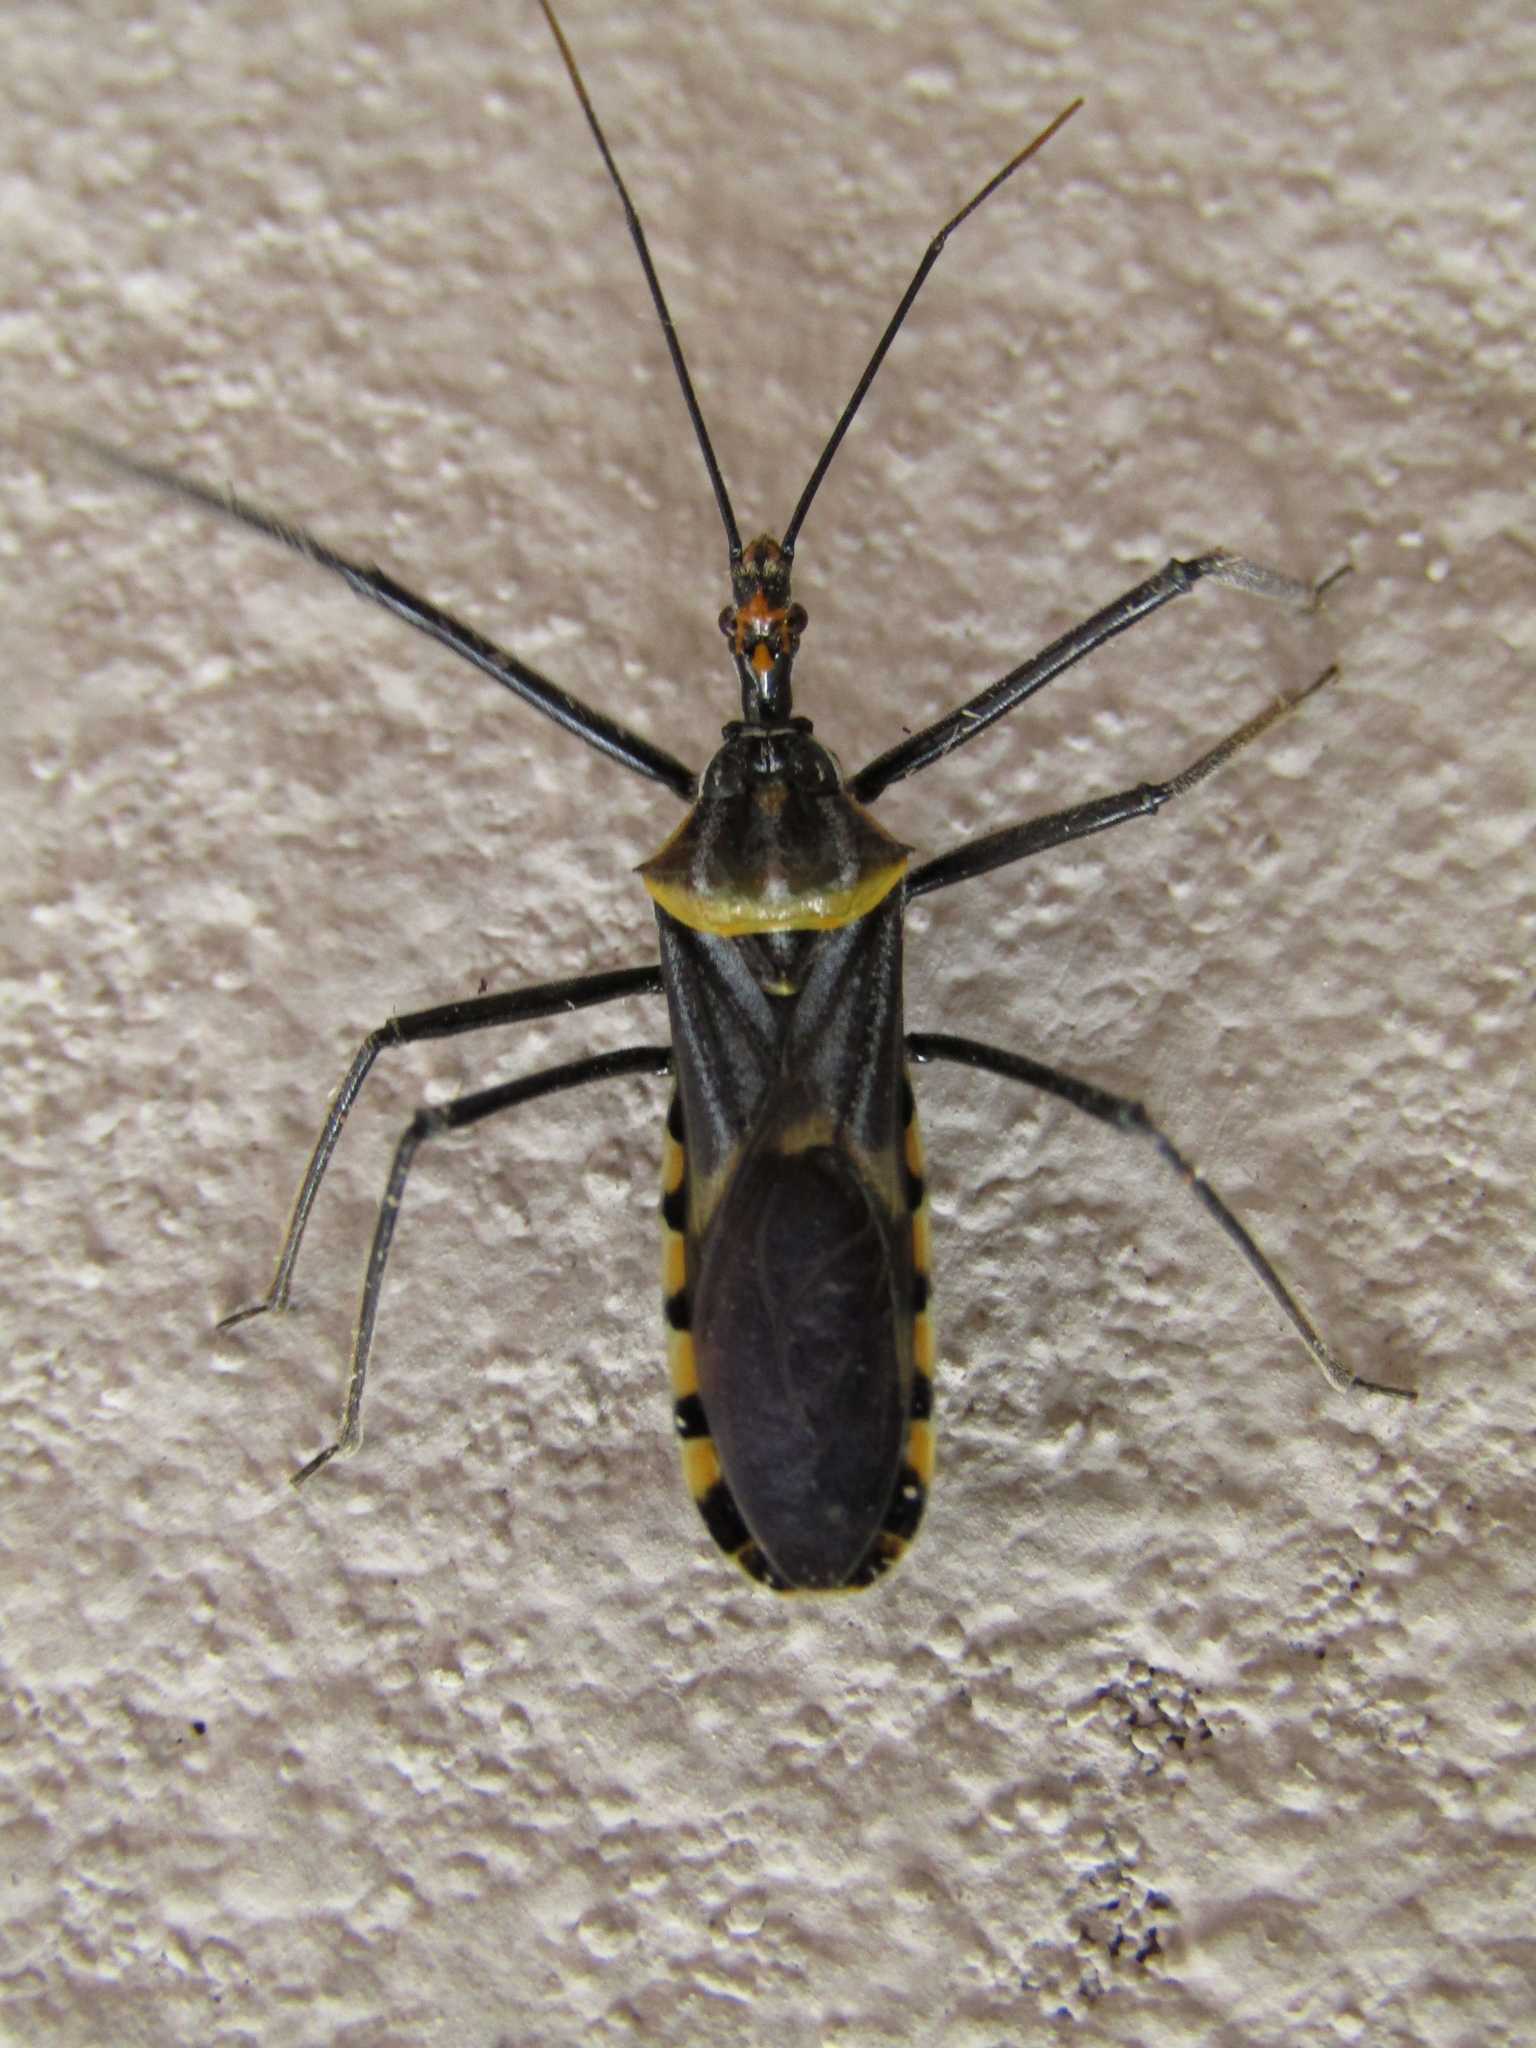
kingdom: Animalia
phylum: Arthropoda
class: Insecta
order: Hemiptera
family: Reduviidae
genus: Zelus
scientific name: Zelus leucogrammus
